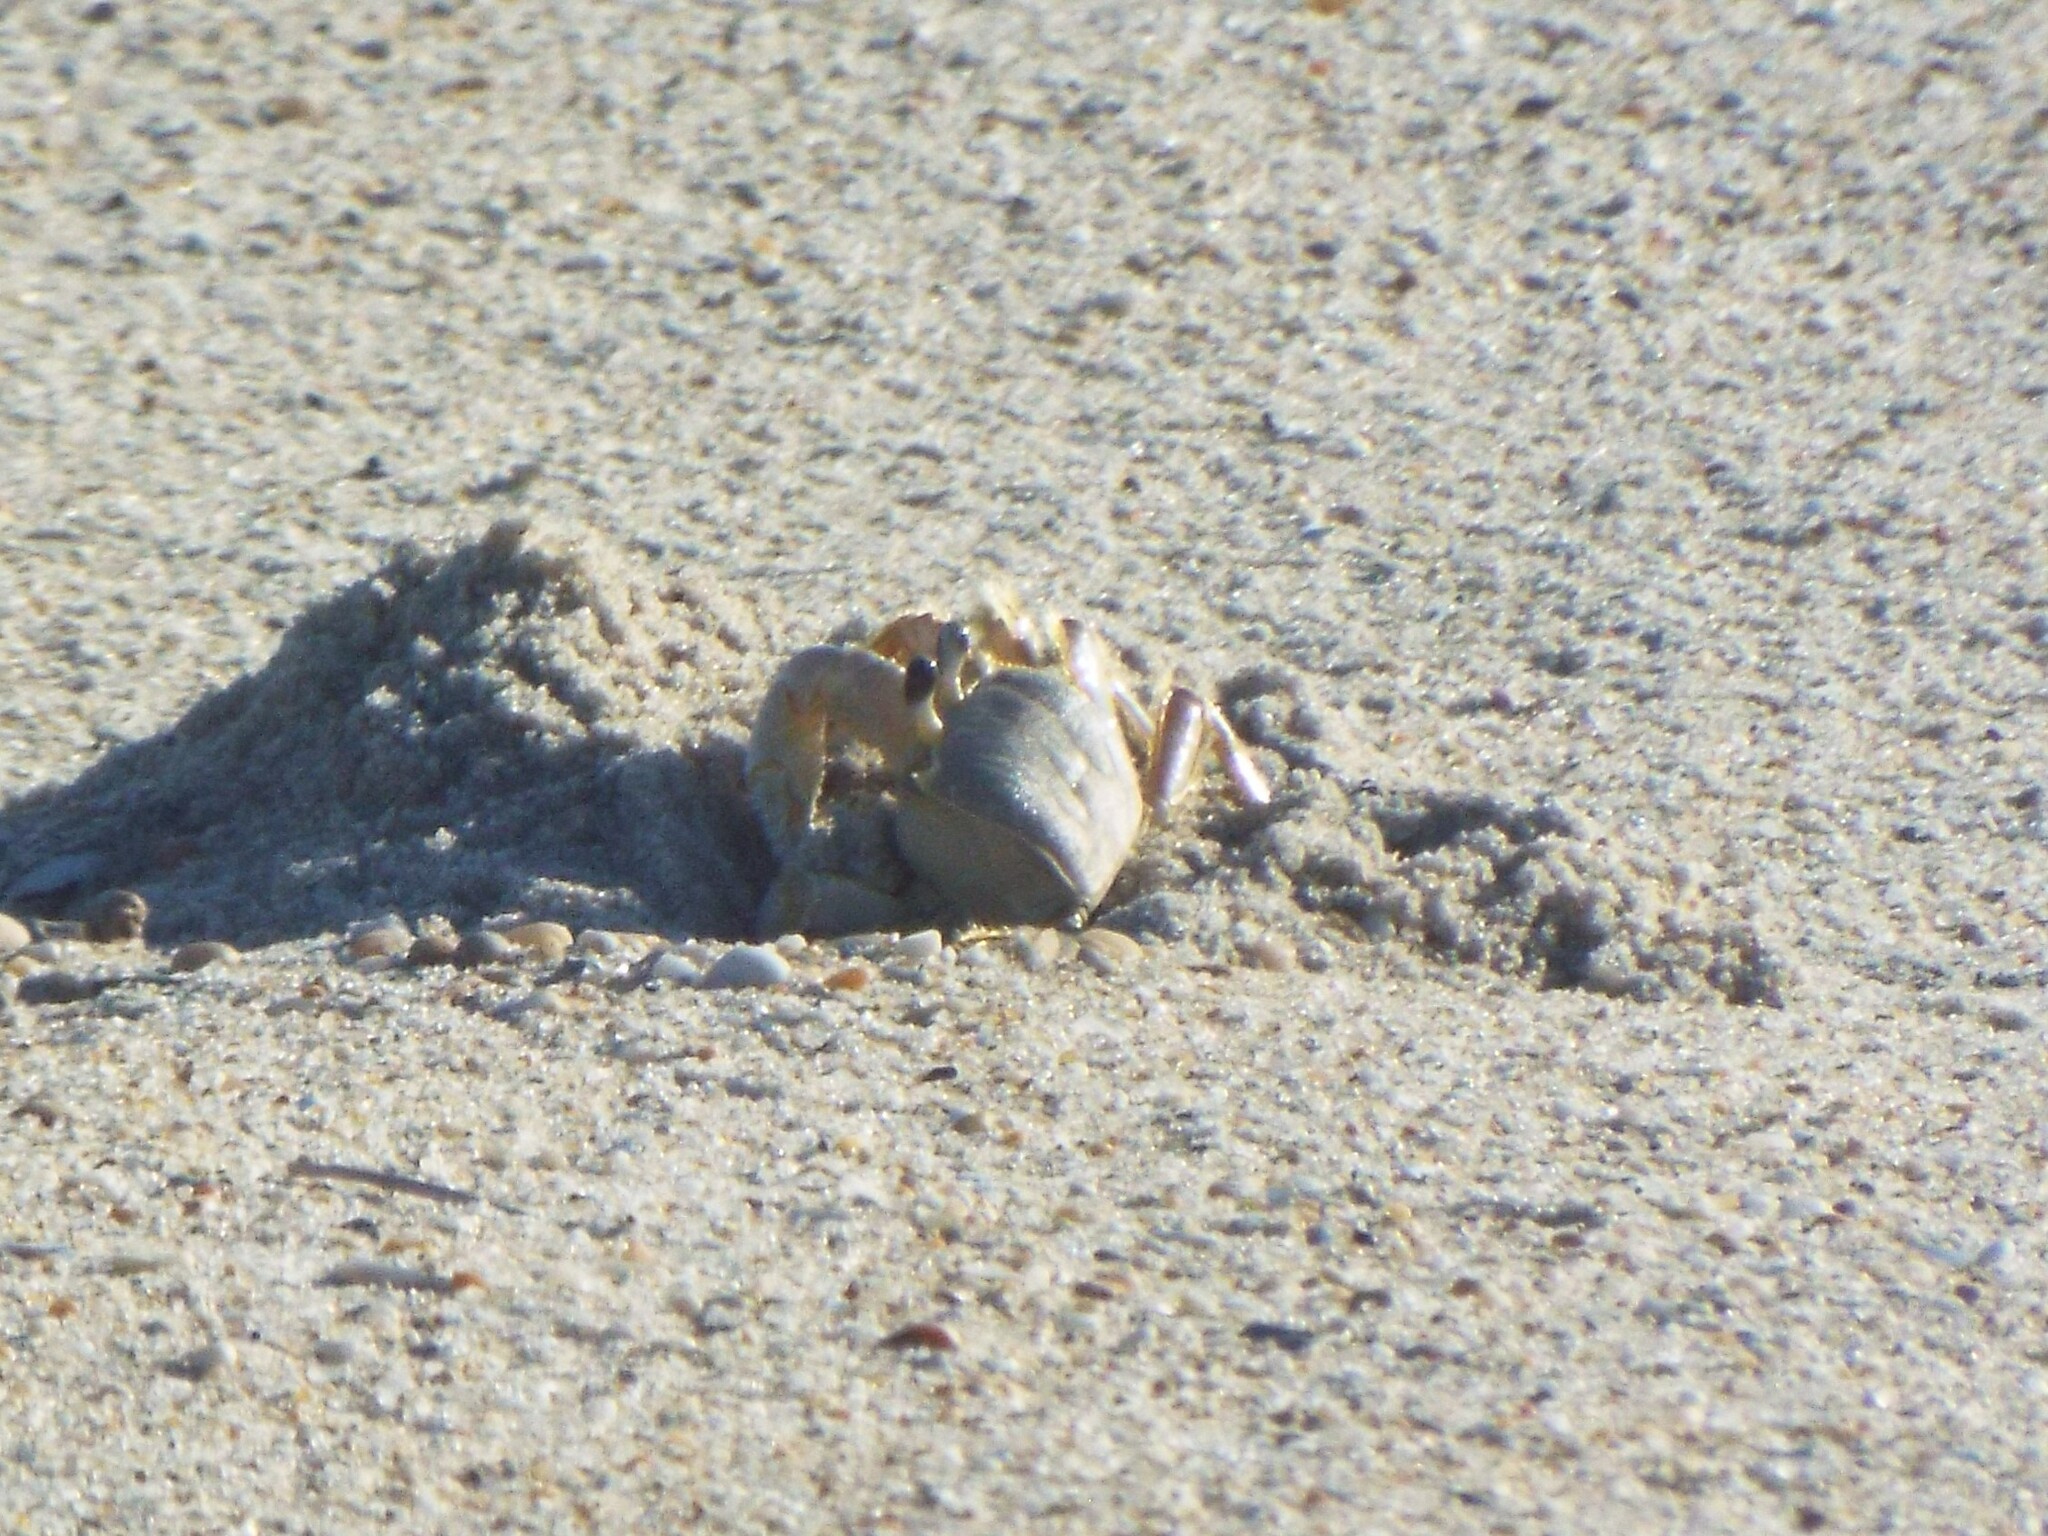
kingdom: Animalia
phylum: Arthropoda
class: Malacostraca
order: Decapoda
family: Ocypodidae
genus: Ocypode
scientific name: Ocypode quadrata
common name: Ghost crab
